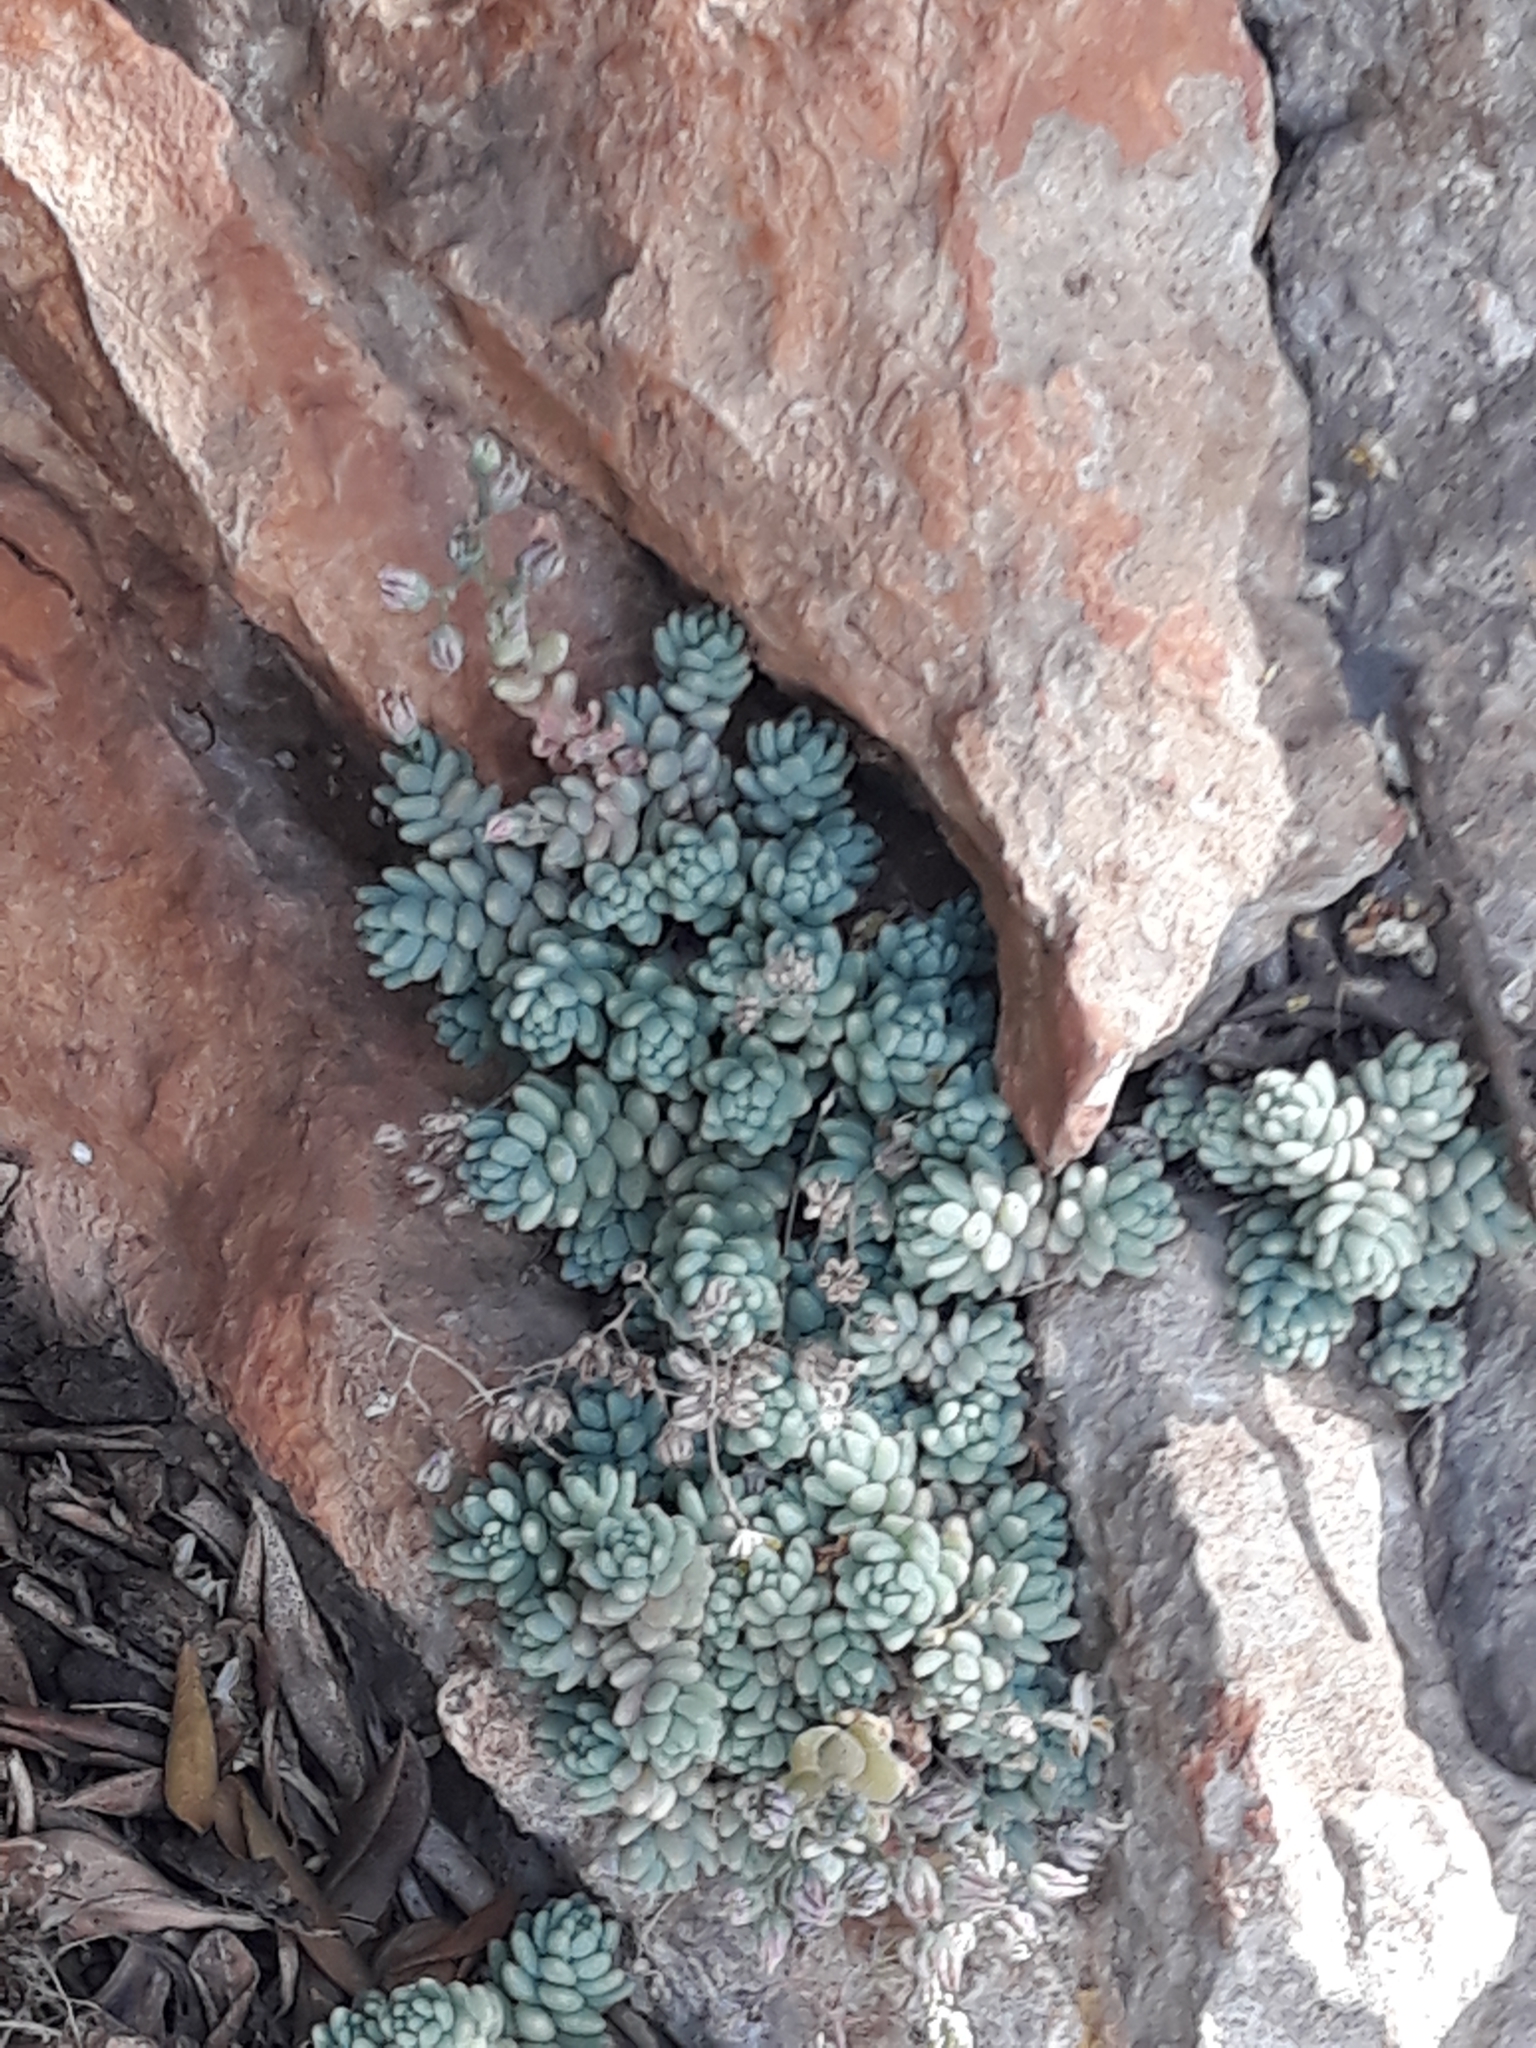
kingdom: Plantae
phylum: Tracheophyta
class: Magnoliopsida
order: Saxifragales
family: Crassulaceae
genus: Sedum
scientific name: Sedum dasyphyllum
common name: Thick-leaf stonecrop
